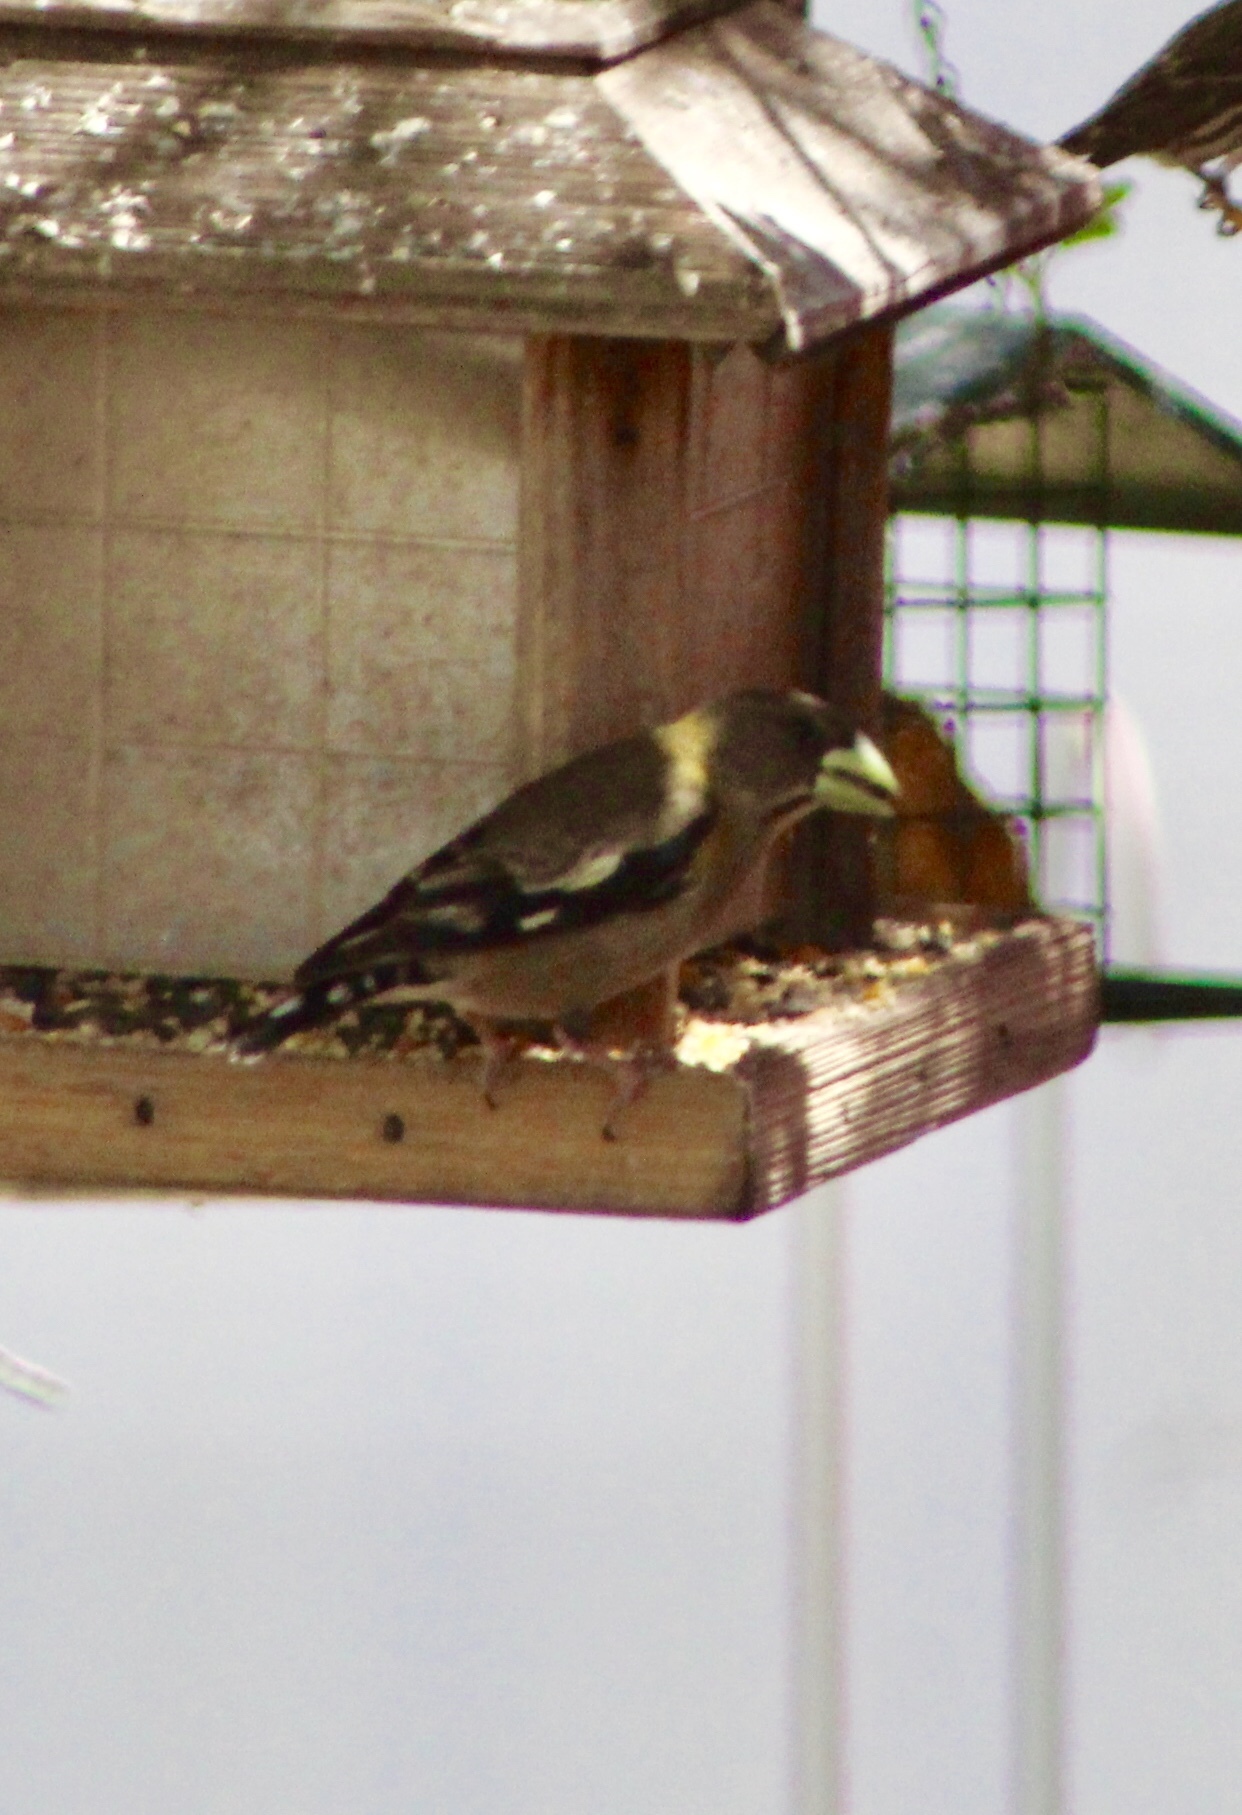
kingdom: Animalia
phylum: Chordata
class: Aves
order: Passeriformes
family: Fringillidae
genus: Hesperiphona
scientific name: Hesperiphona vespertina
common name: Evening grosbeak
